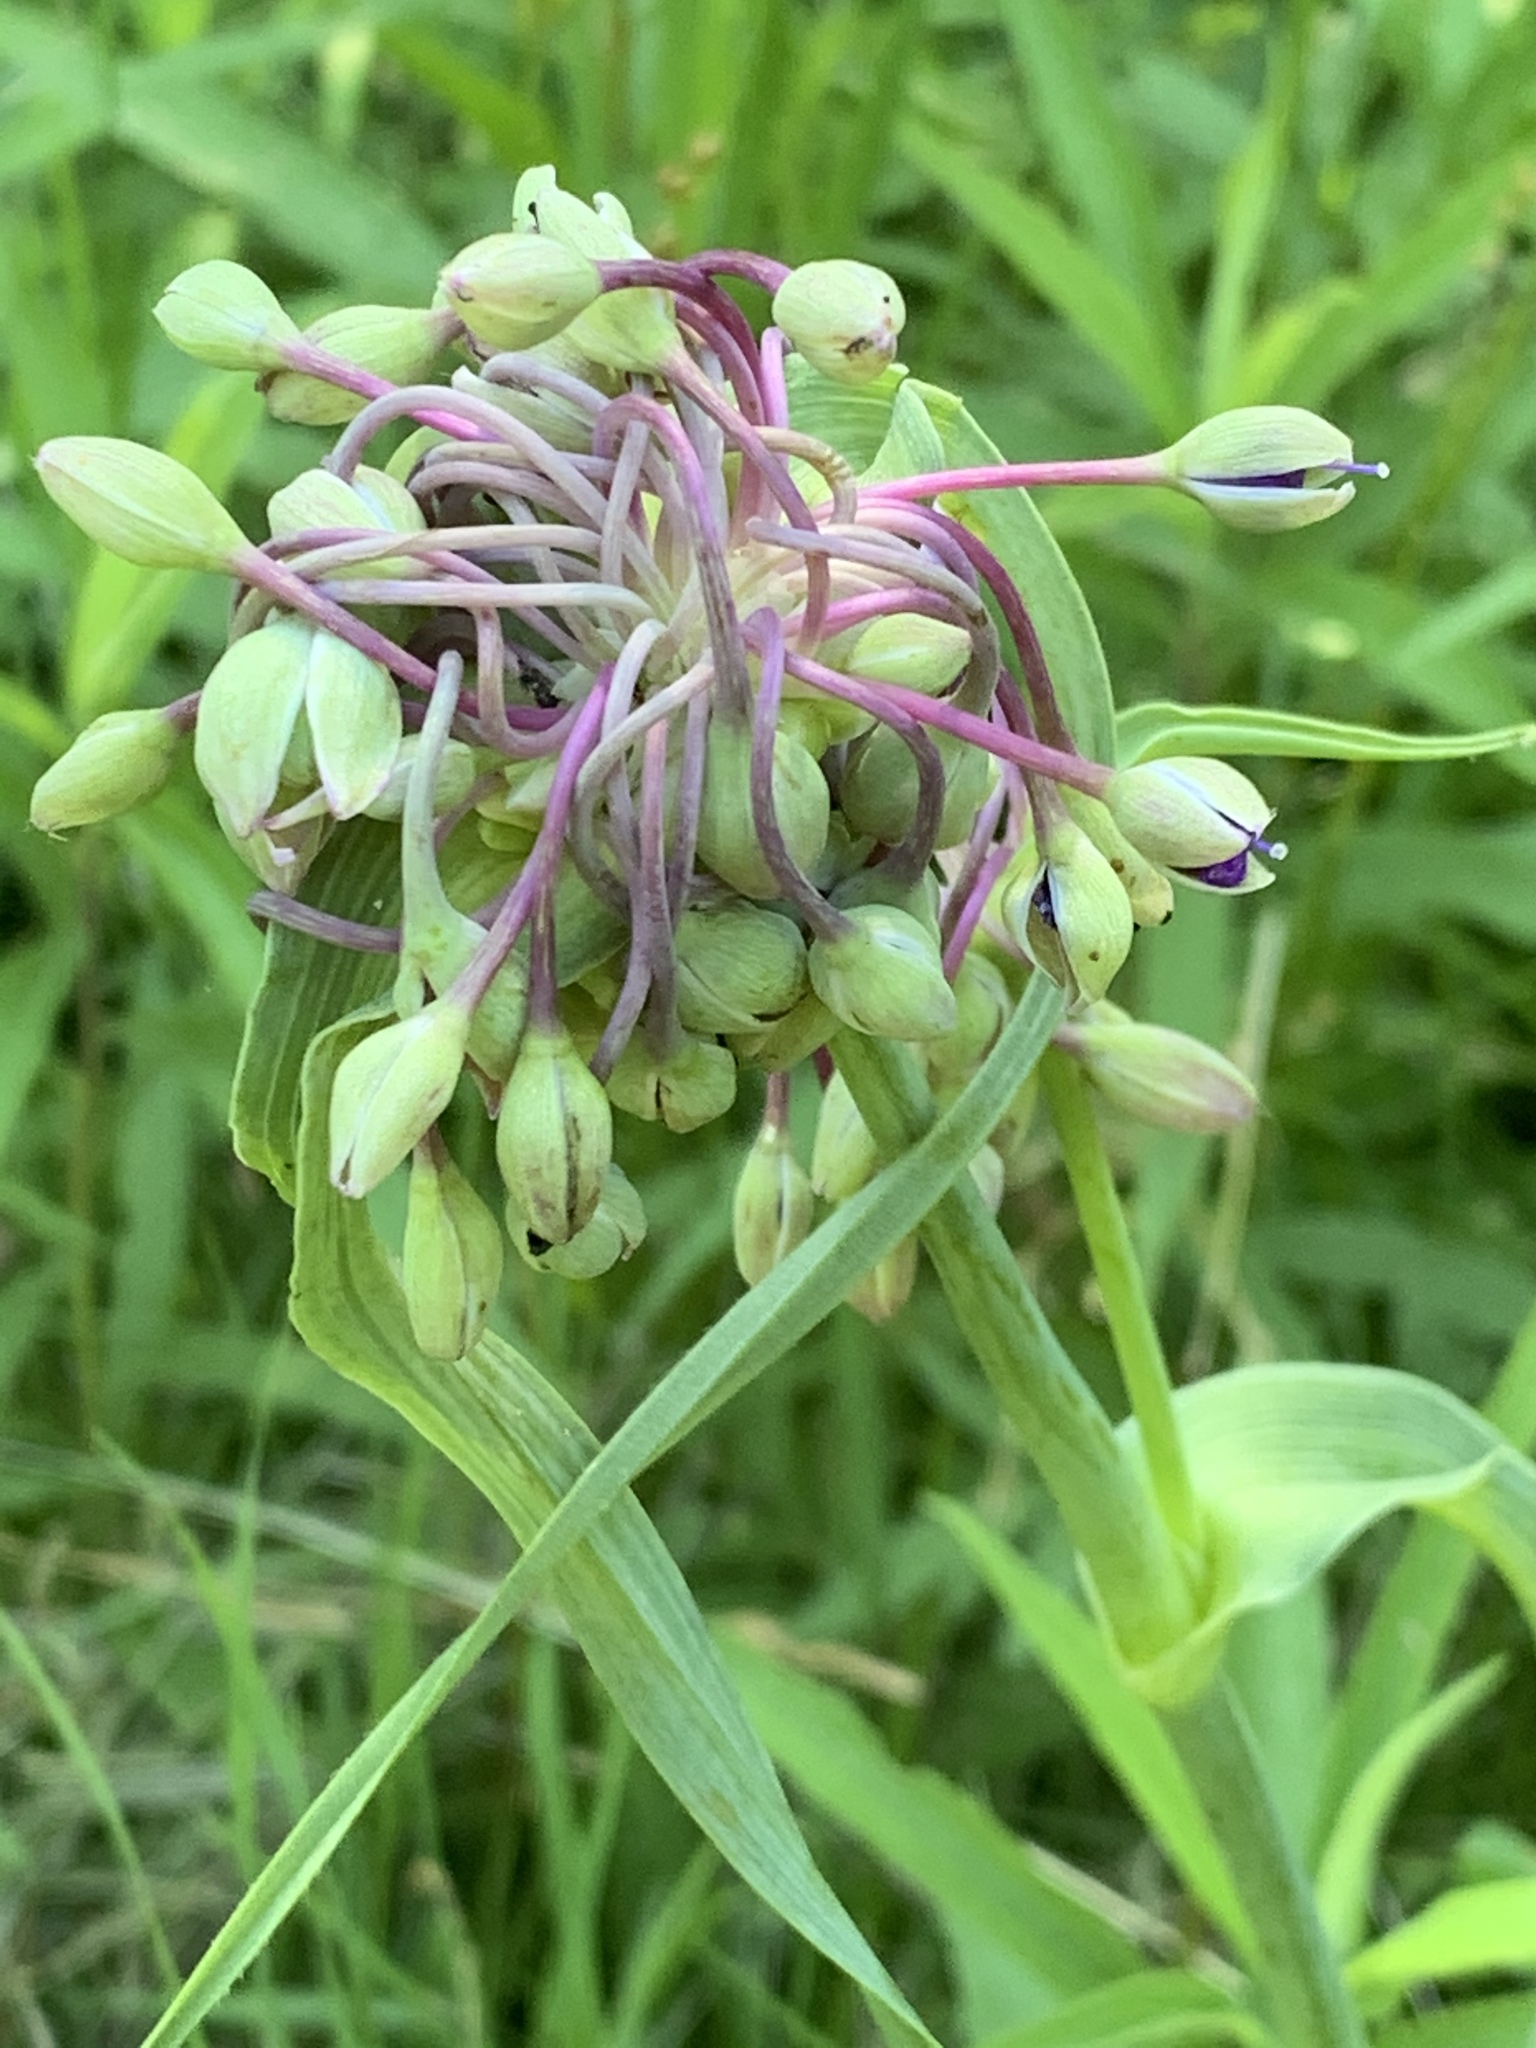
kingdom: Plantae
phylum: Tracheophyta
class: Liliopsida
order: Commelinales
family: Commelinaceae
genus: Tradescantia
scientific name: Tradescantia ohiensis
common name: Ohio spiderwort
